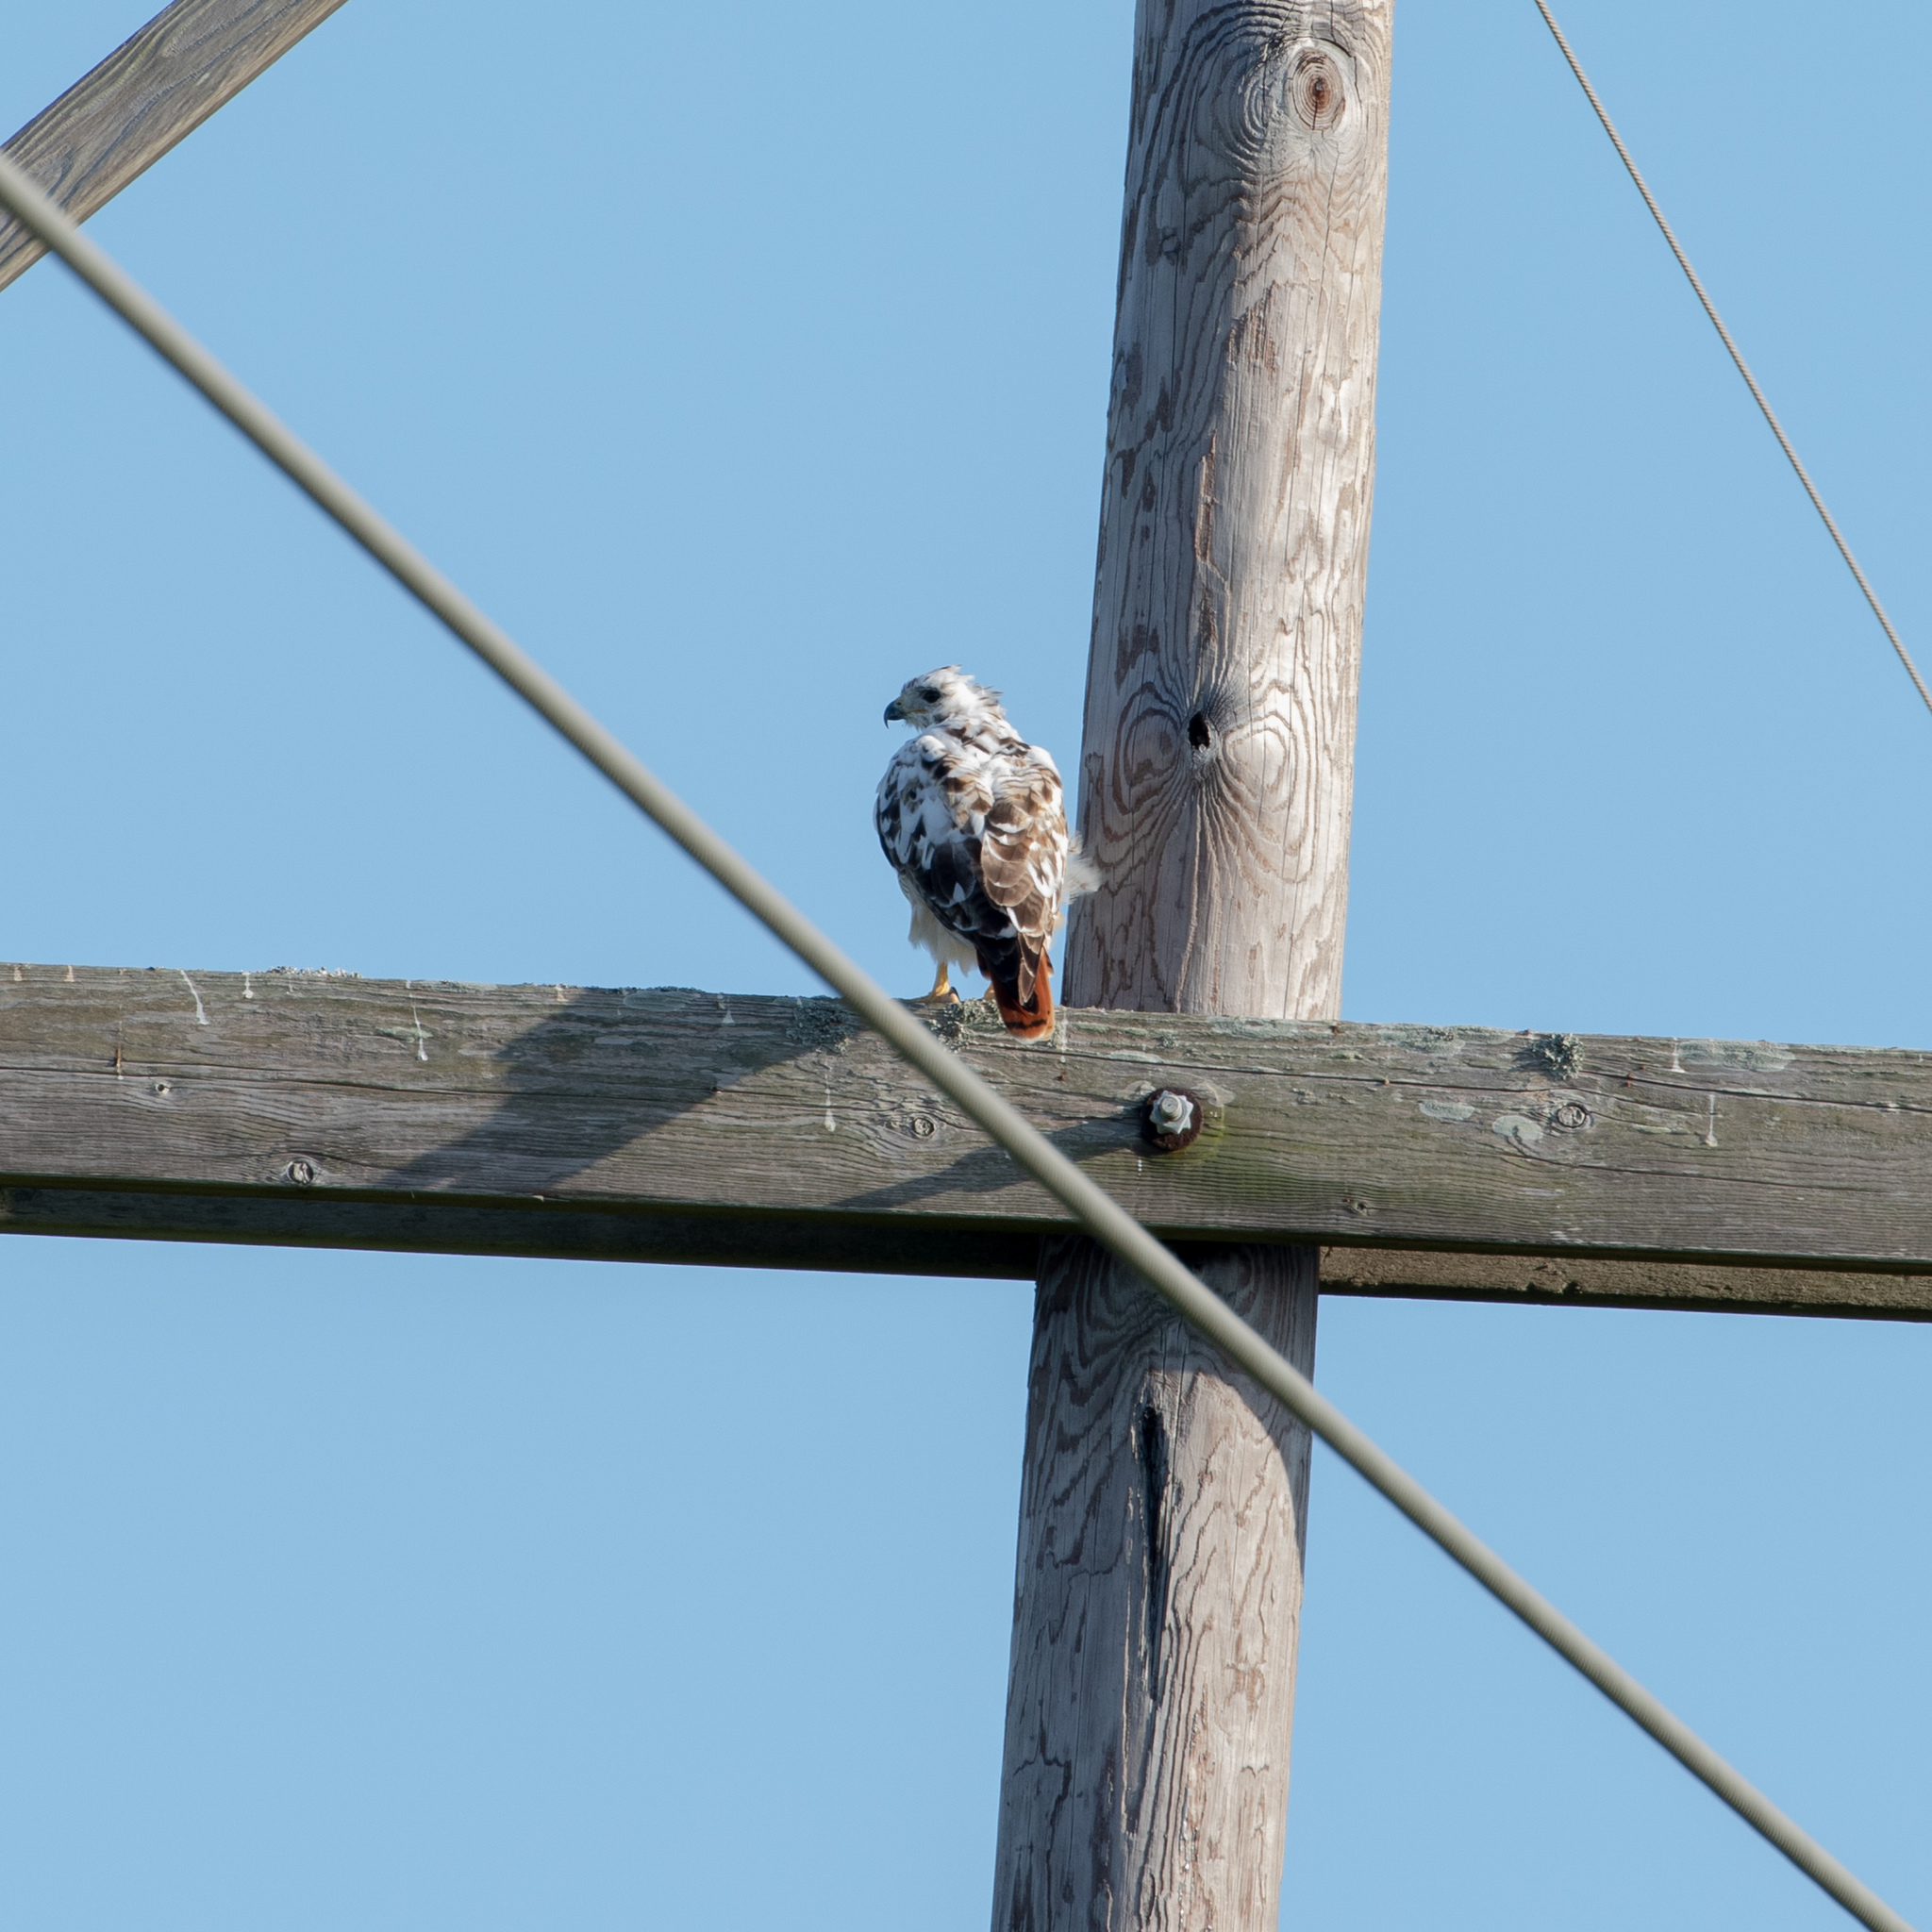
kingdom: Animalia
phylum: Chordata
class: Aves
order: Accipitriformes
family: Accipitridae
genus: Buteo
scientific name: Buteo jamaicensis
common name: Red-tailed hawk
